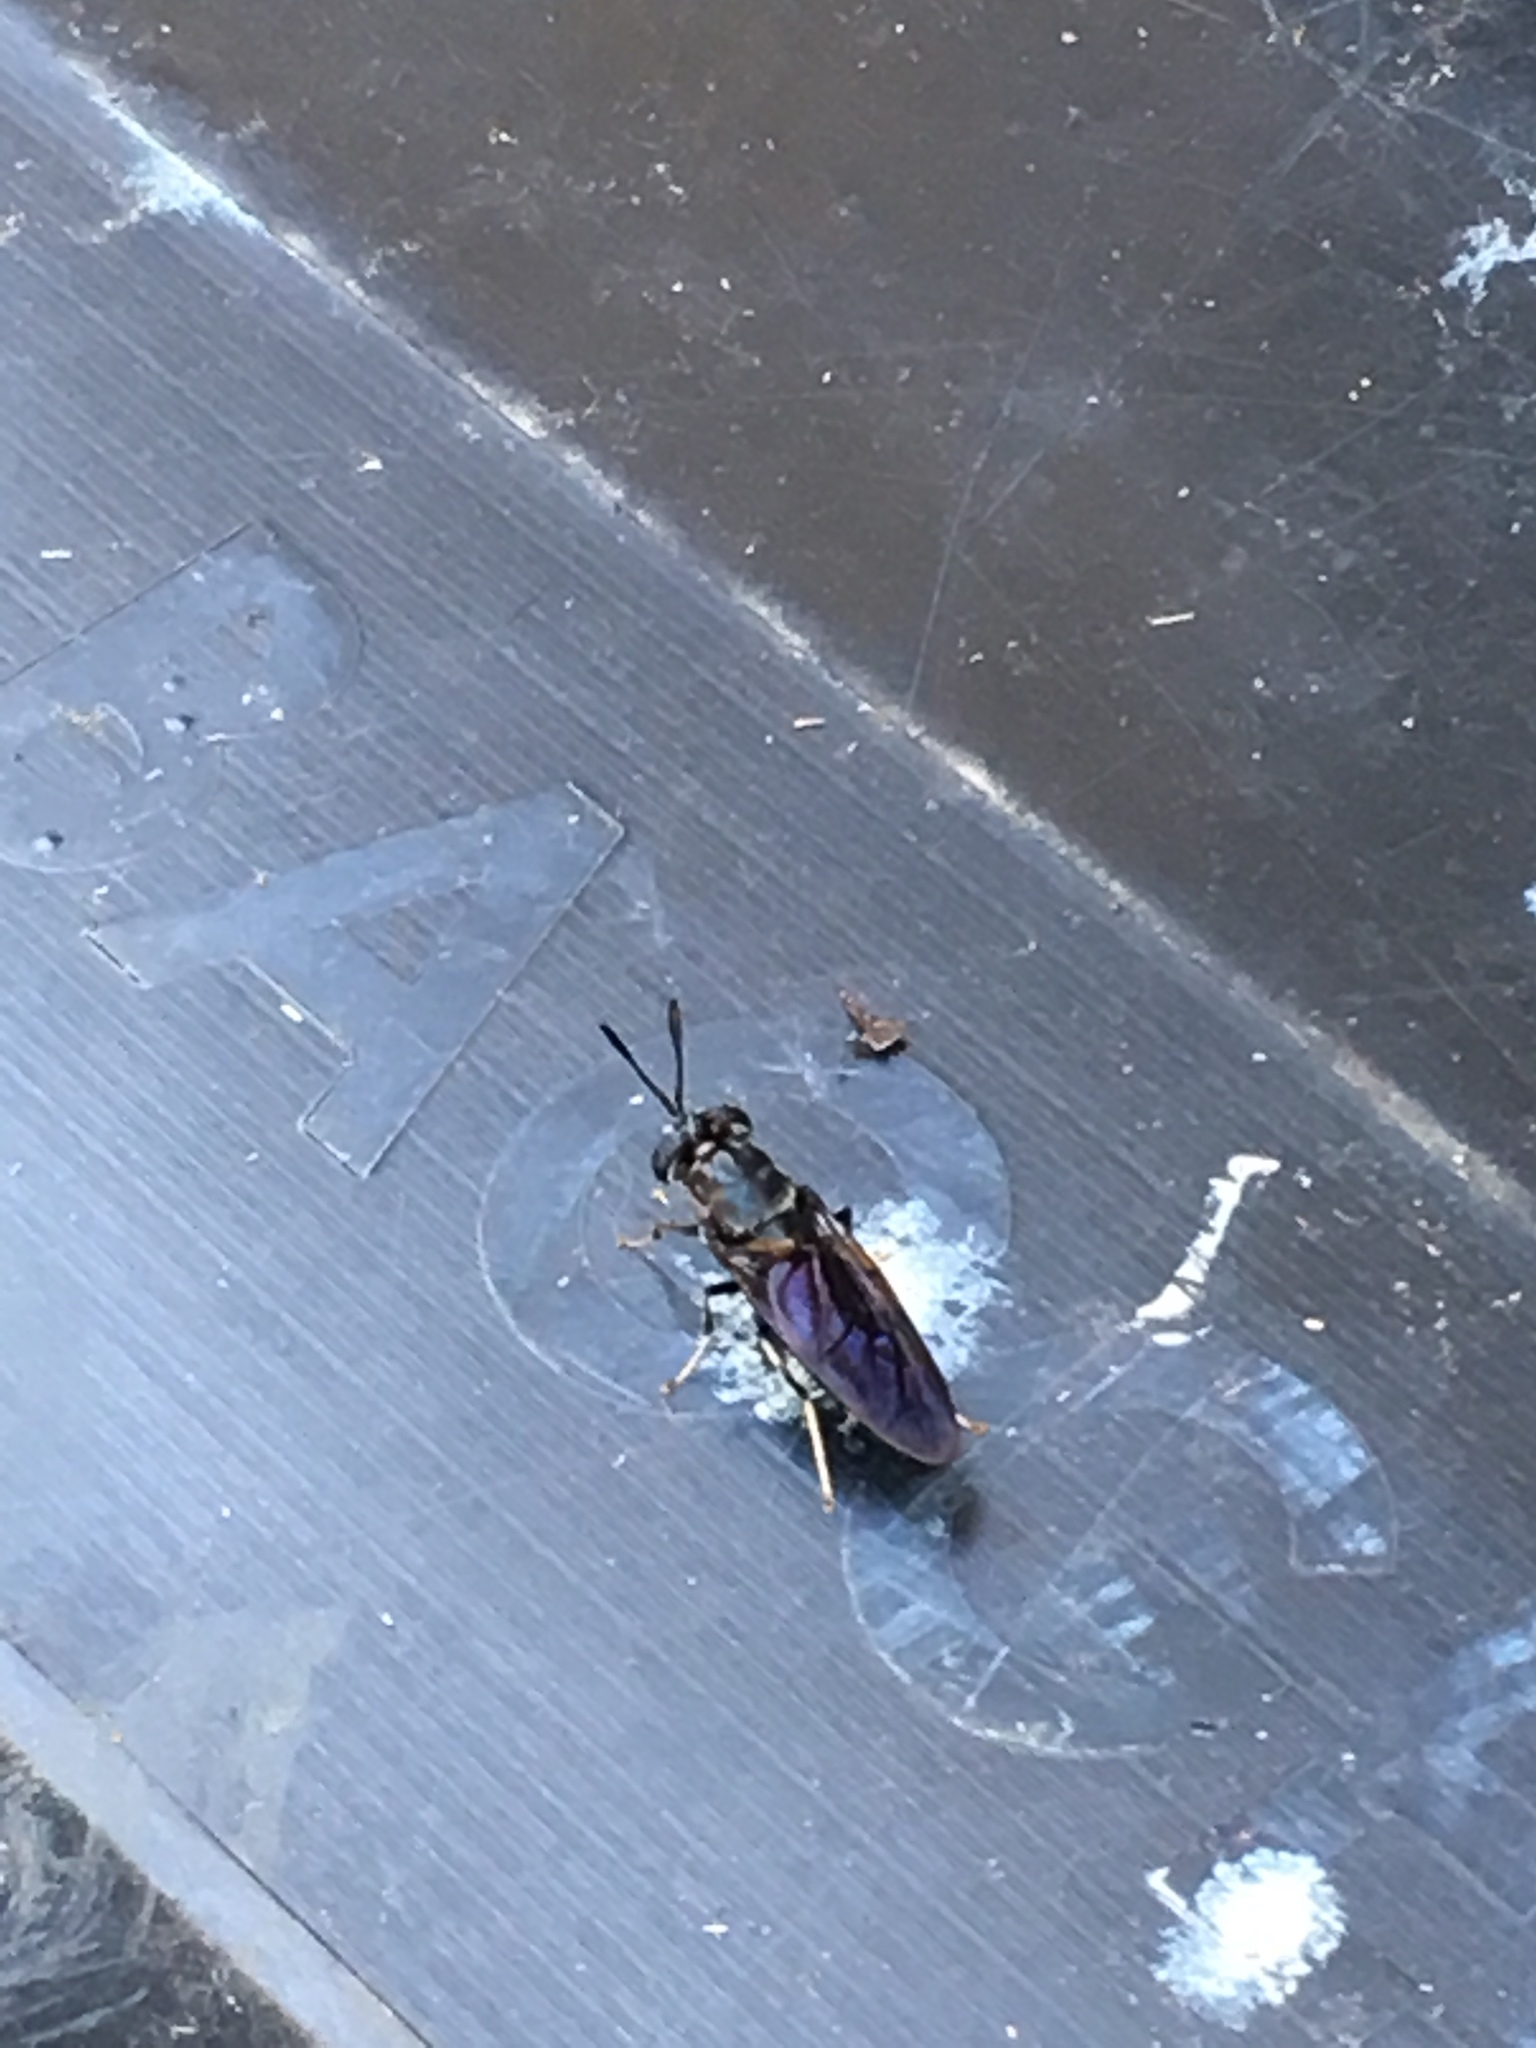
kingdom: Animalia
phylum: Arthropoda
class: Insecta
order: Diptera
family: Stratiomyidae
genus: Hermetia
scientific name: Hermetia illucens
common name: Black soldier fly
